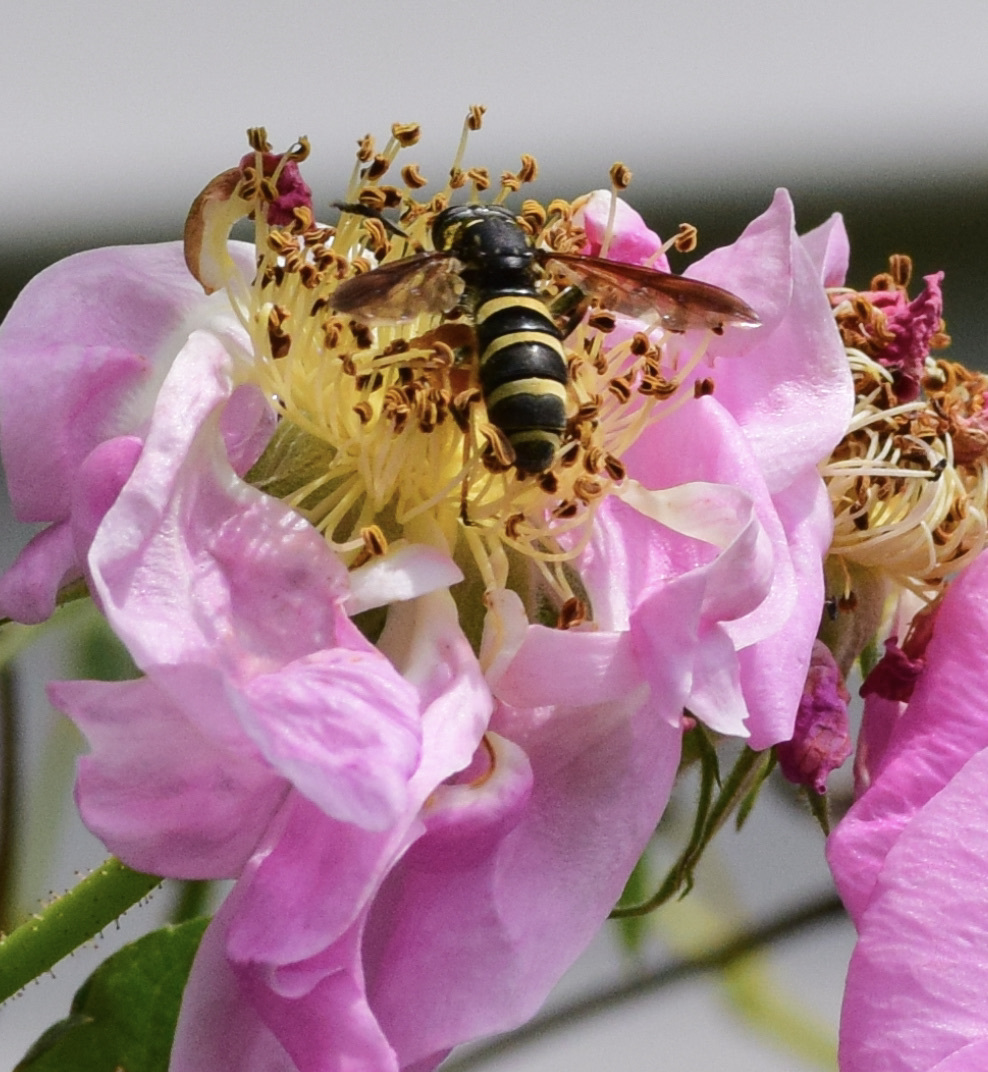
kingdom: Animalia
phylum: Arthropoda
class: Insecta
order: Diptera
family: Syrphidae
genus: Temnostoma
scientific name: Temnostoma barberi
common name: Bare-bellied falsehorn
